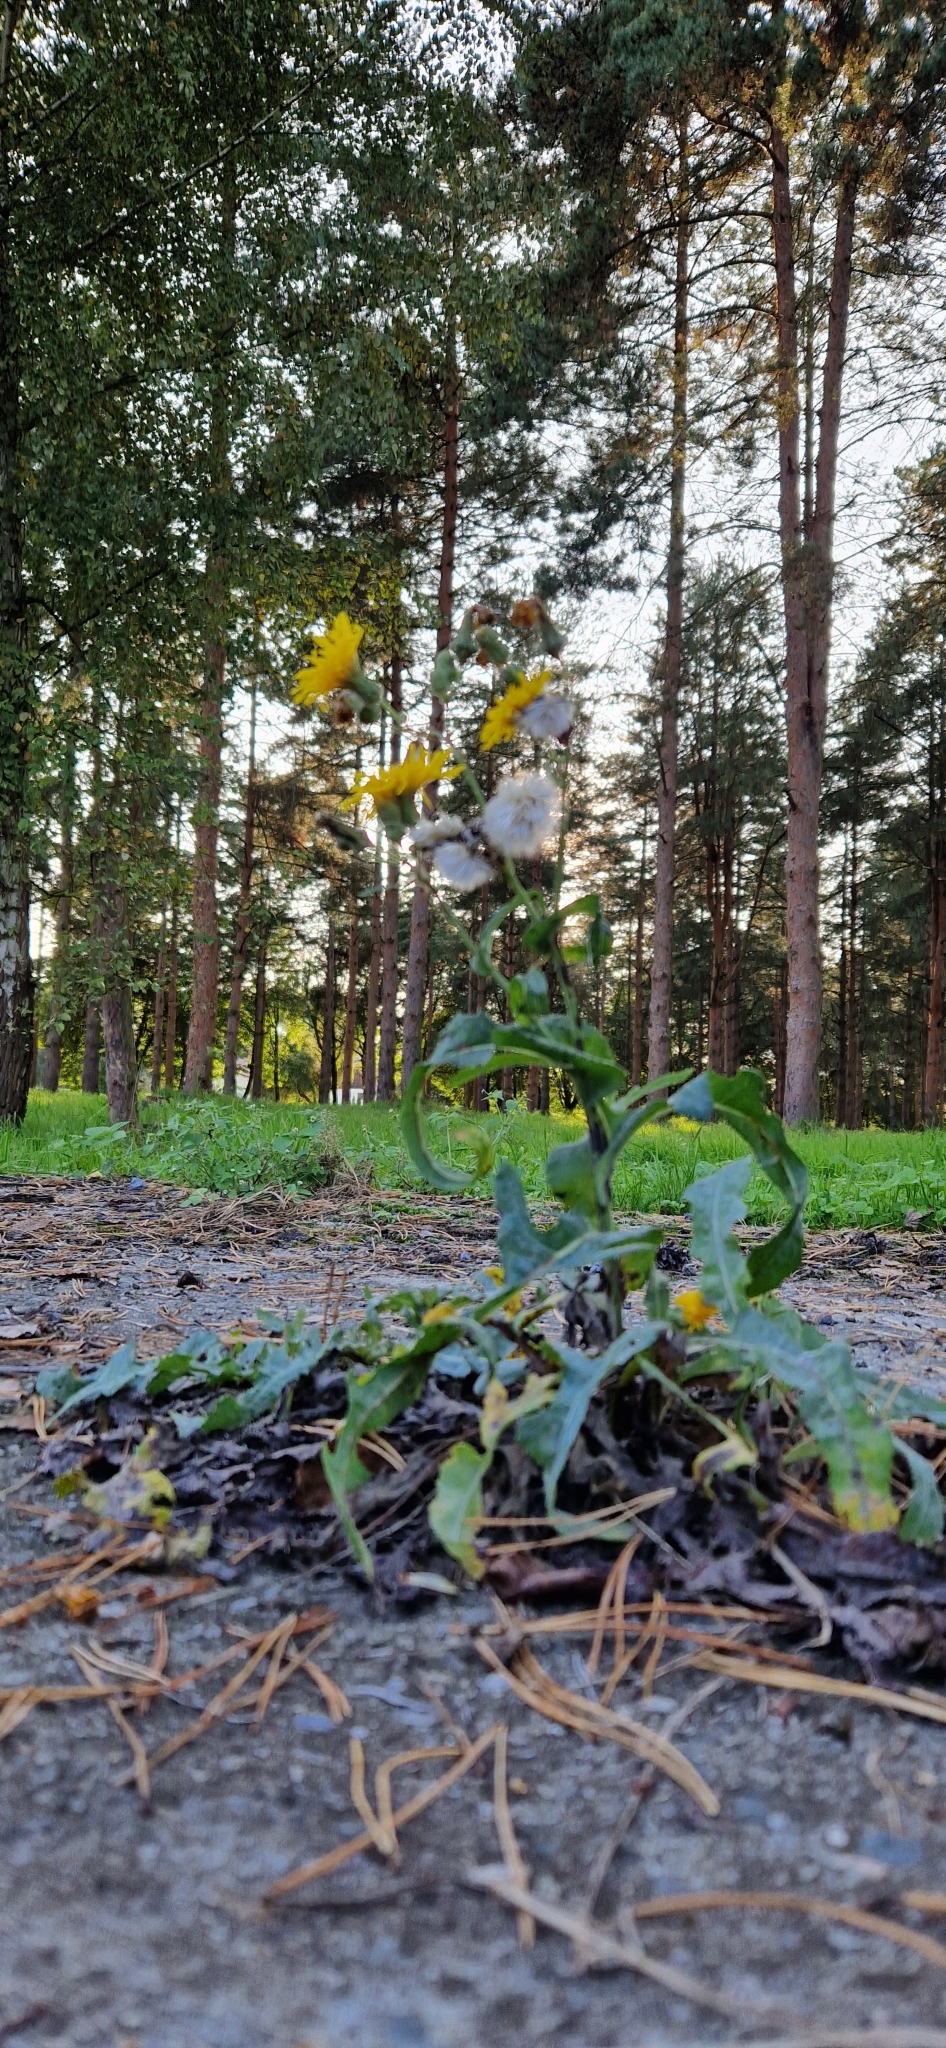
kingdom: Plantae
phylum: Tracheophyta
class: Magnoliopsida
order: Asterales
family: Asteraceae
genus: Sonchus
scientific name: Sonchus arvensis
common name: Perennial sow-thistle
